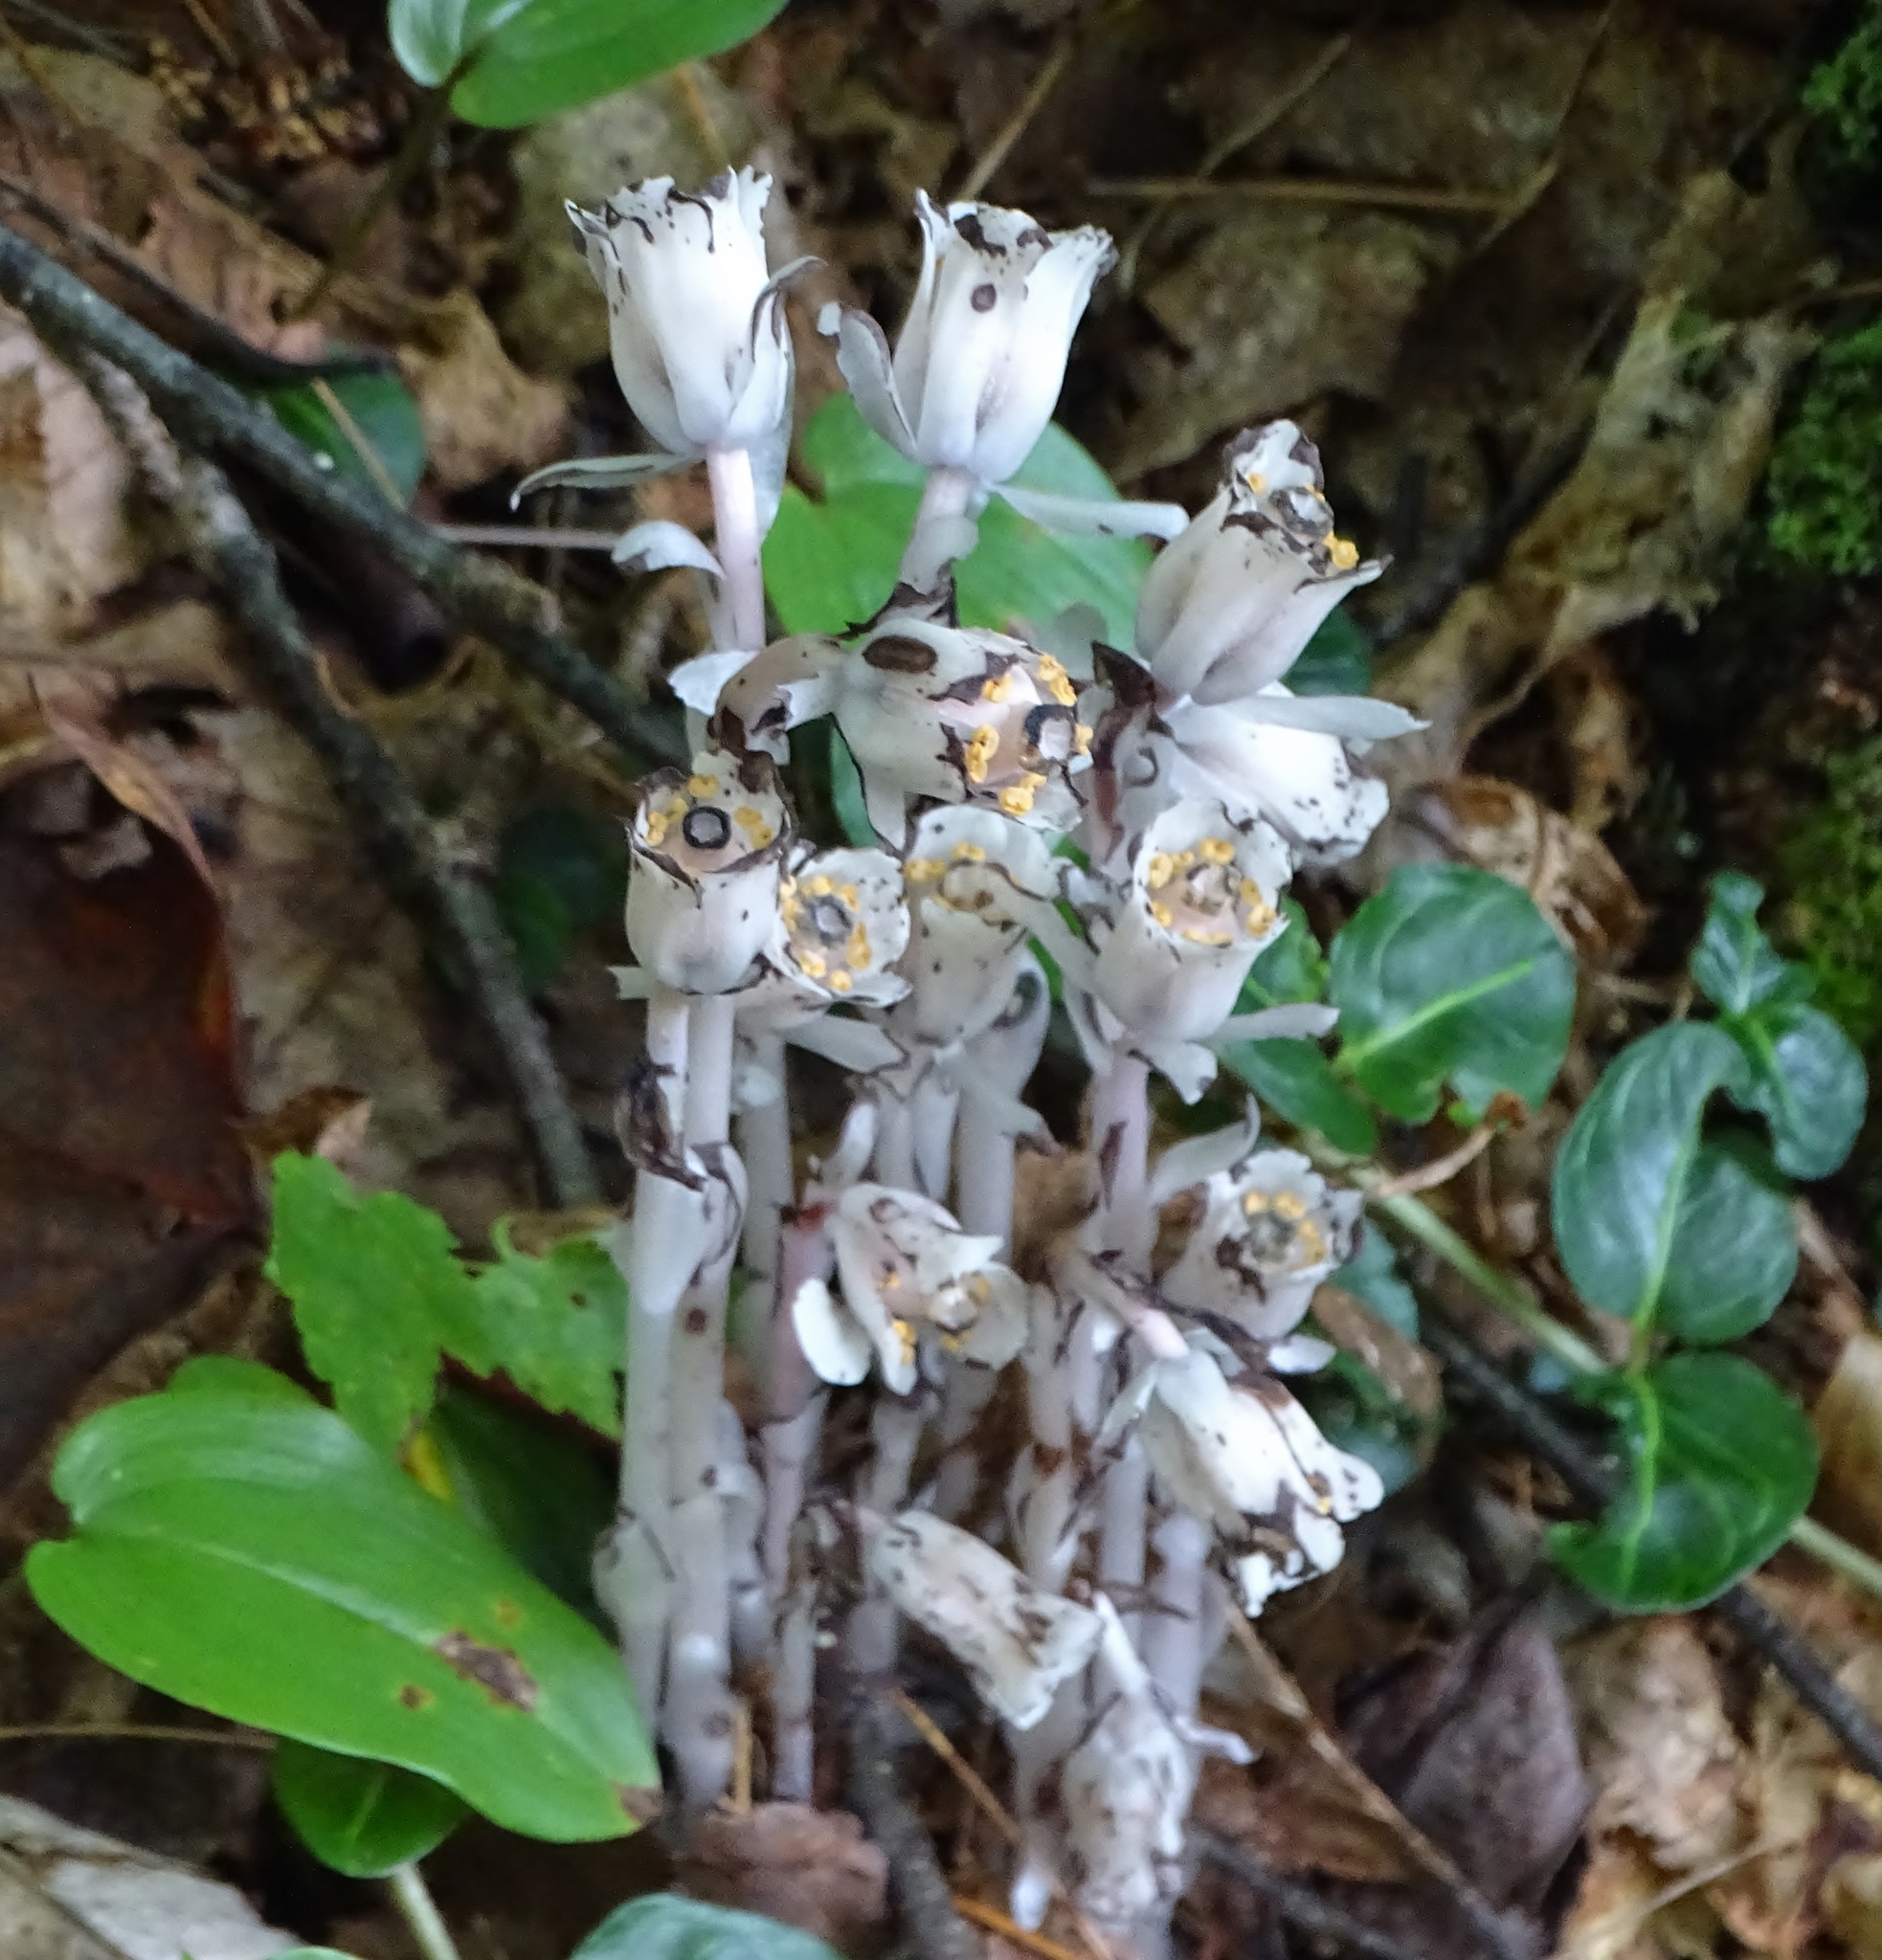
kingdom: Plantae
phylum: Tracheophyta
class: Magnoliopsida
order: Ericales
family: Ericaceae
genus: Monotropa
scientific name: Monotropa uniflora
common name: Convulsion root
